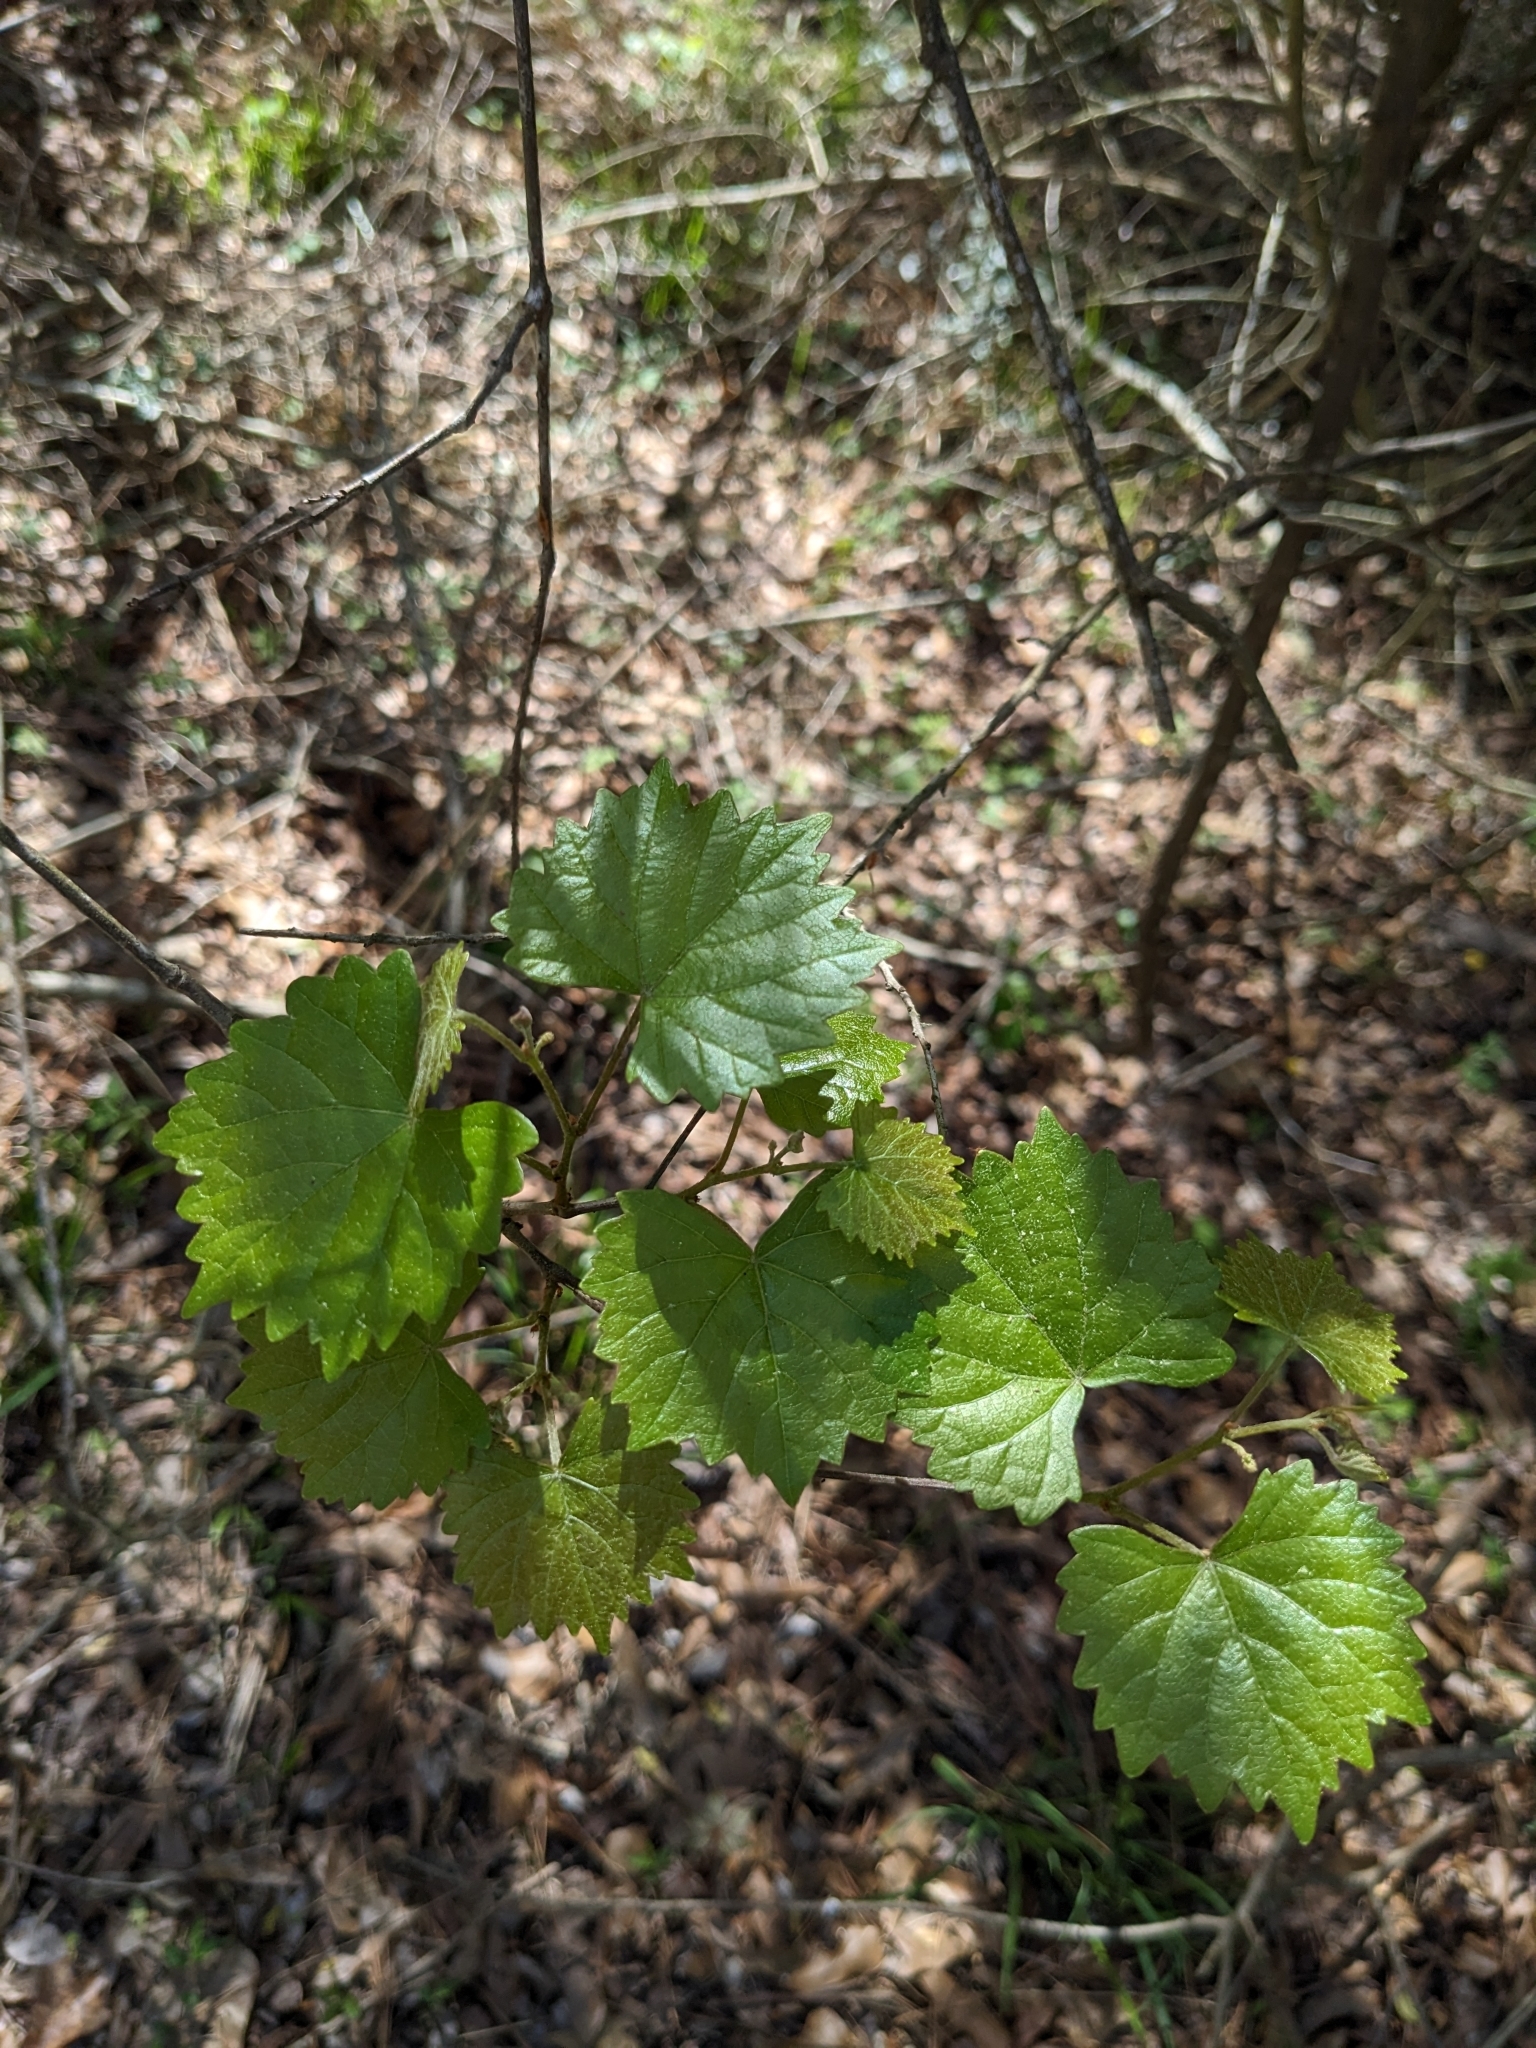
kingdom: Plantae
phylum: Tracheophyta
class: Magnoliopsida
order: Vitales
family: Vitaceae
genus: Vitis
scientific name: Vitis rotundifolia
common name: Muscadine grape
